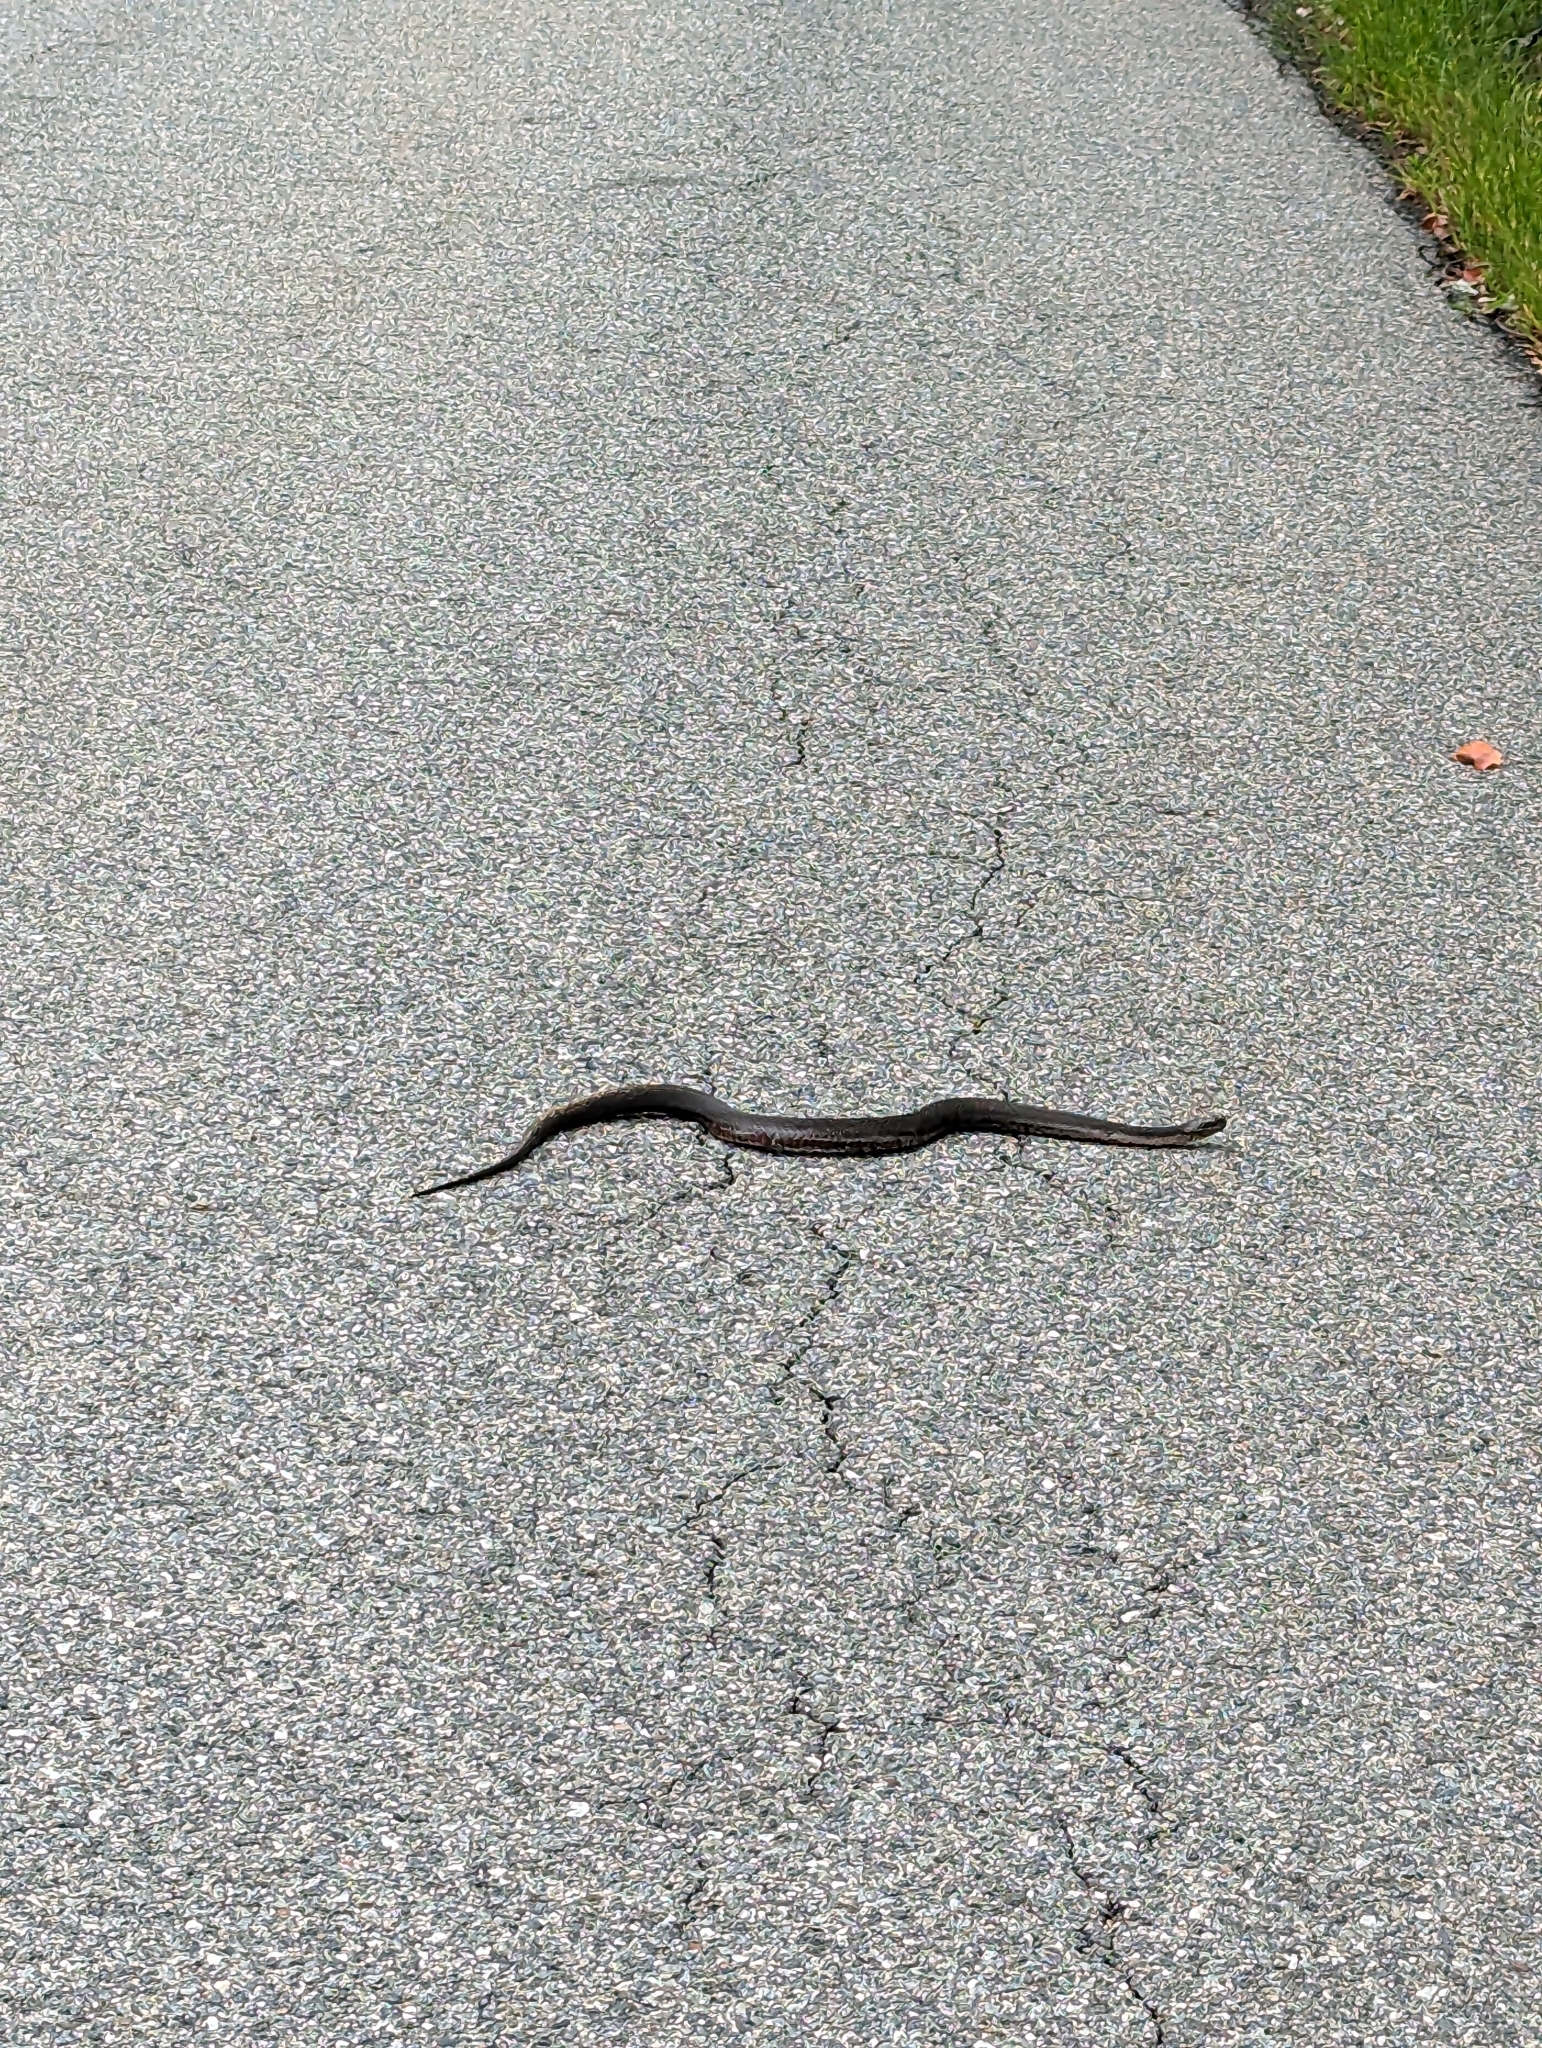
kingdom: Animalia
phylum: Chordata
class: Squamata
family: Colubridae
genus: Nerodia
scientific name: Nerodia sipedon
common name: Northern water snake
